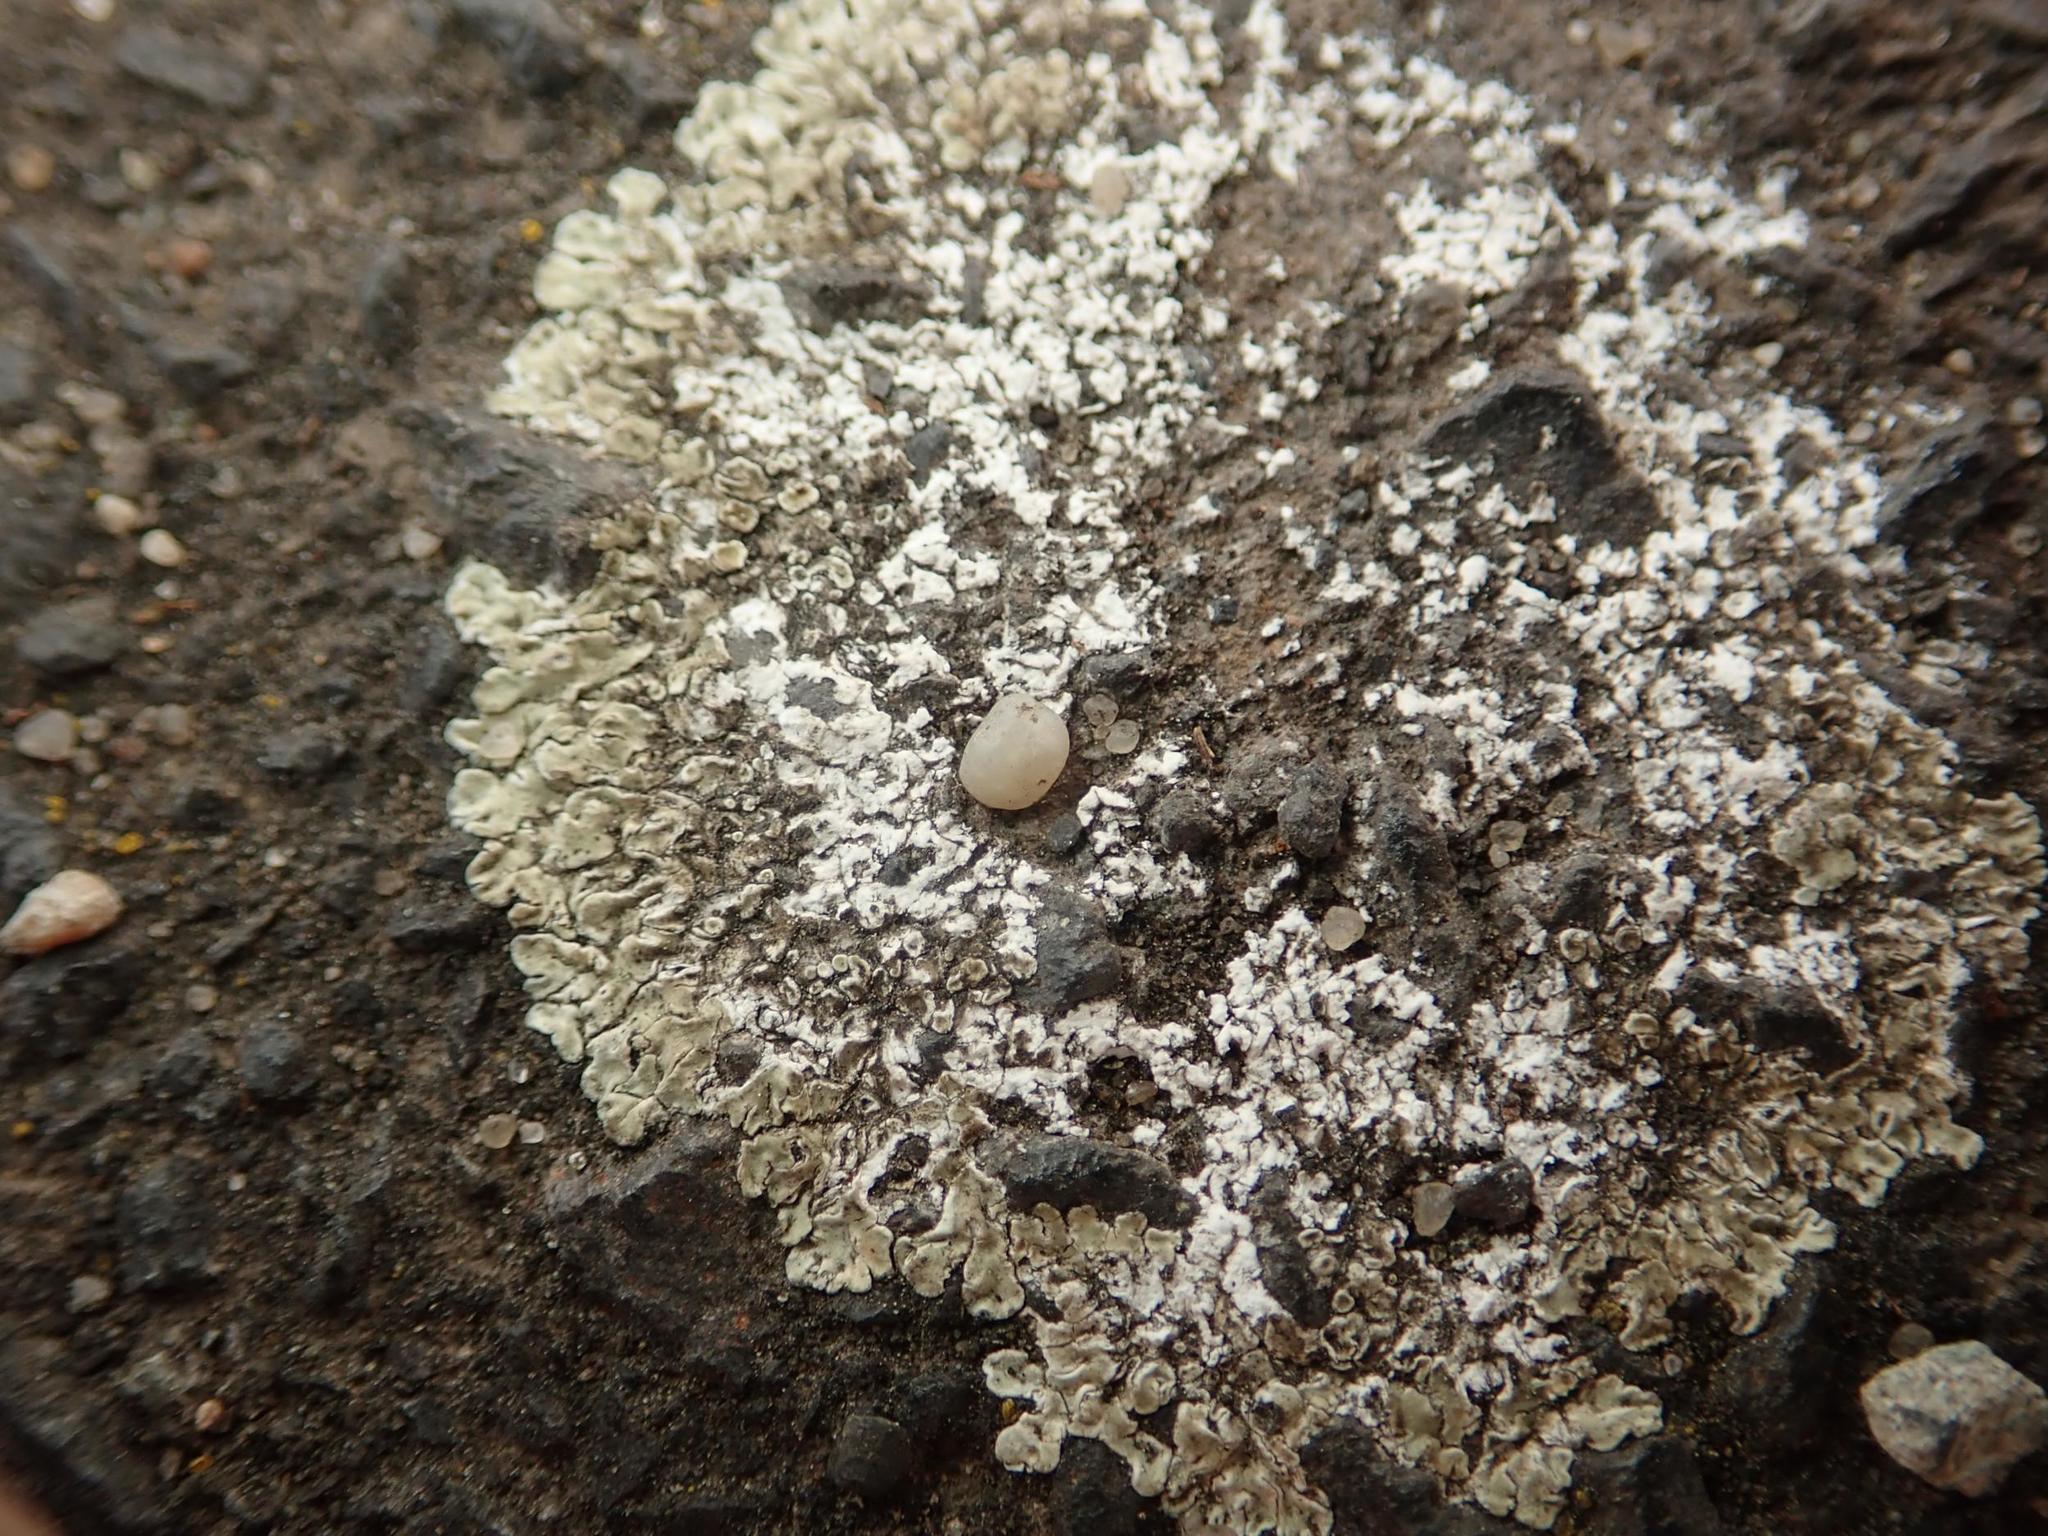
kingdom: Fungi
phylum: Ascomycota
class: Lecanoromycetes
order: Lecanorales
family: Lecanoraceae
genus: Protoparmeliopsis
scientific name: Protoparmeliopsis muralis
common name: Stonewall rim lichen
